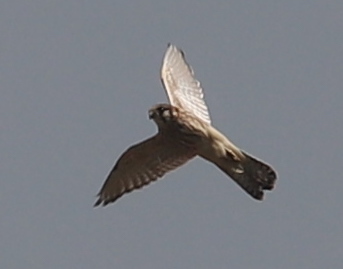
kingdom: Animalia
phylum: Chordata
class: Aves
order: Falconiformes
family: Falconidae
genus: Falco
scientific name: Falco sparverius
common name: American kestrel
